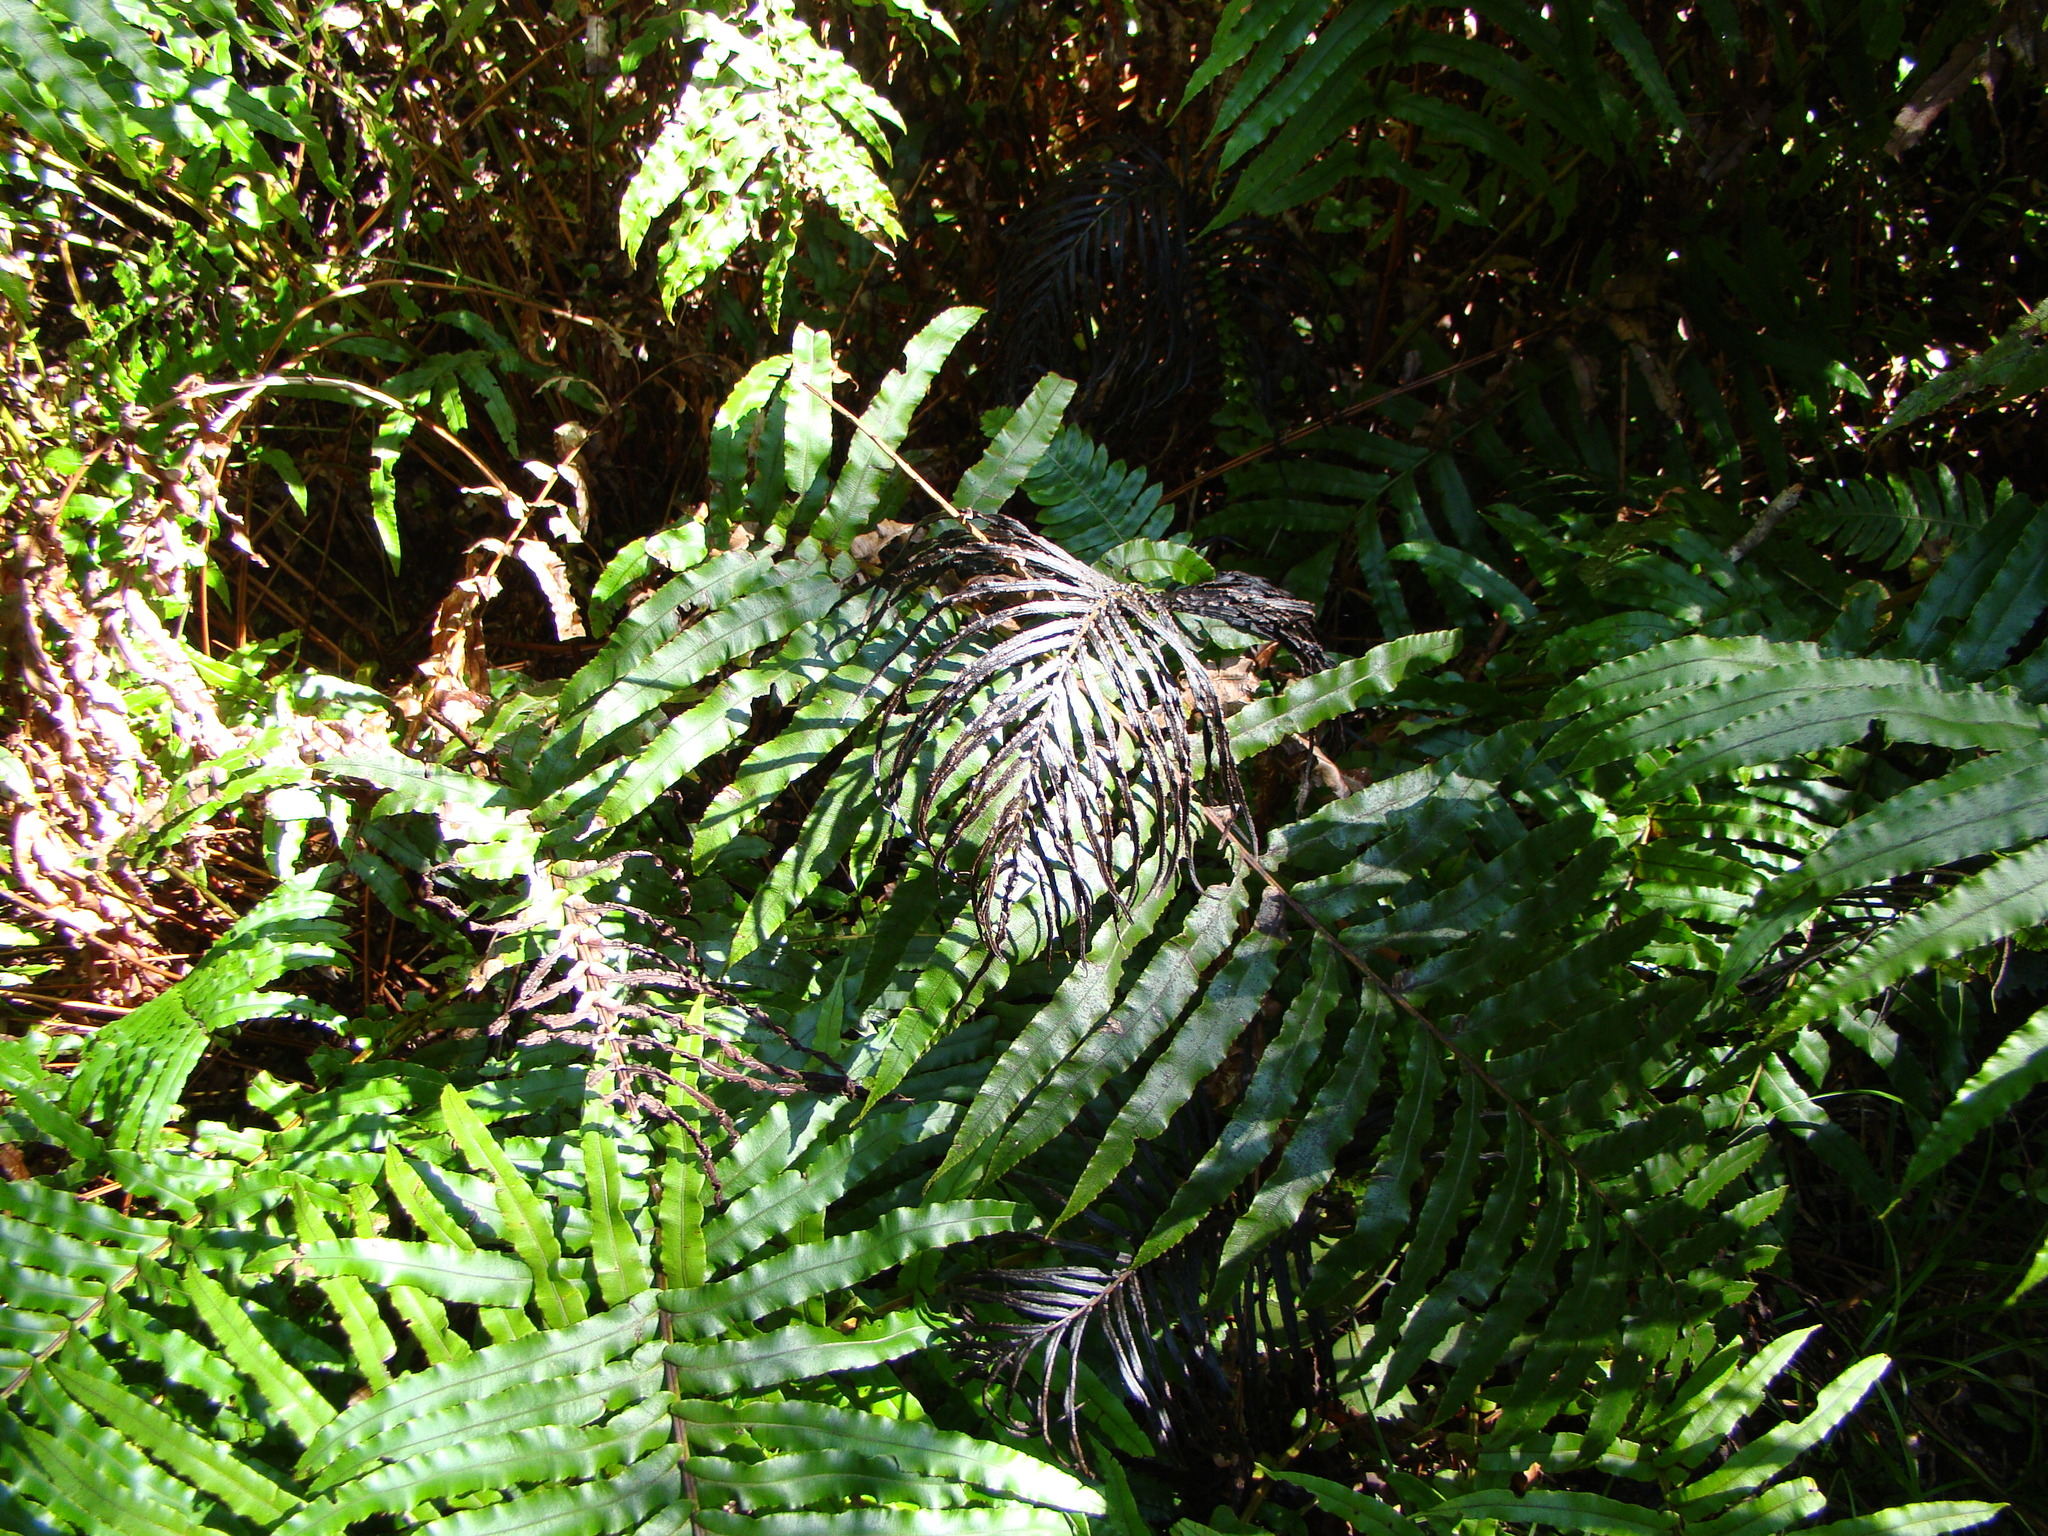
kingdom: Plantae
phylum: Tracheophyta
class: Polypodiopsida
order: Polypodiales
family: Blechnaceae
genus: Parablechnum
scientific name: Parablechnum novae-zelandiae
